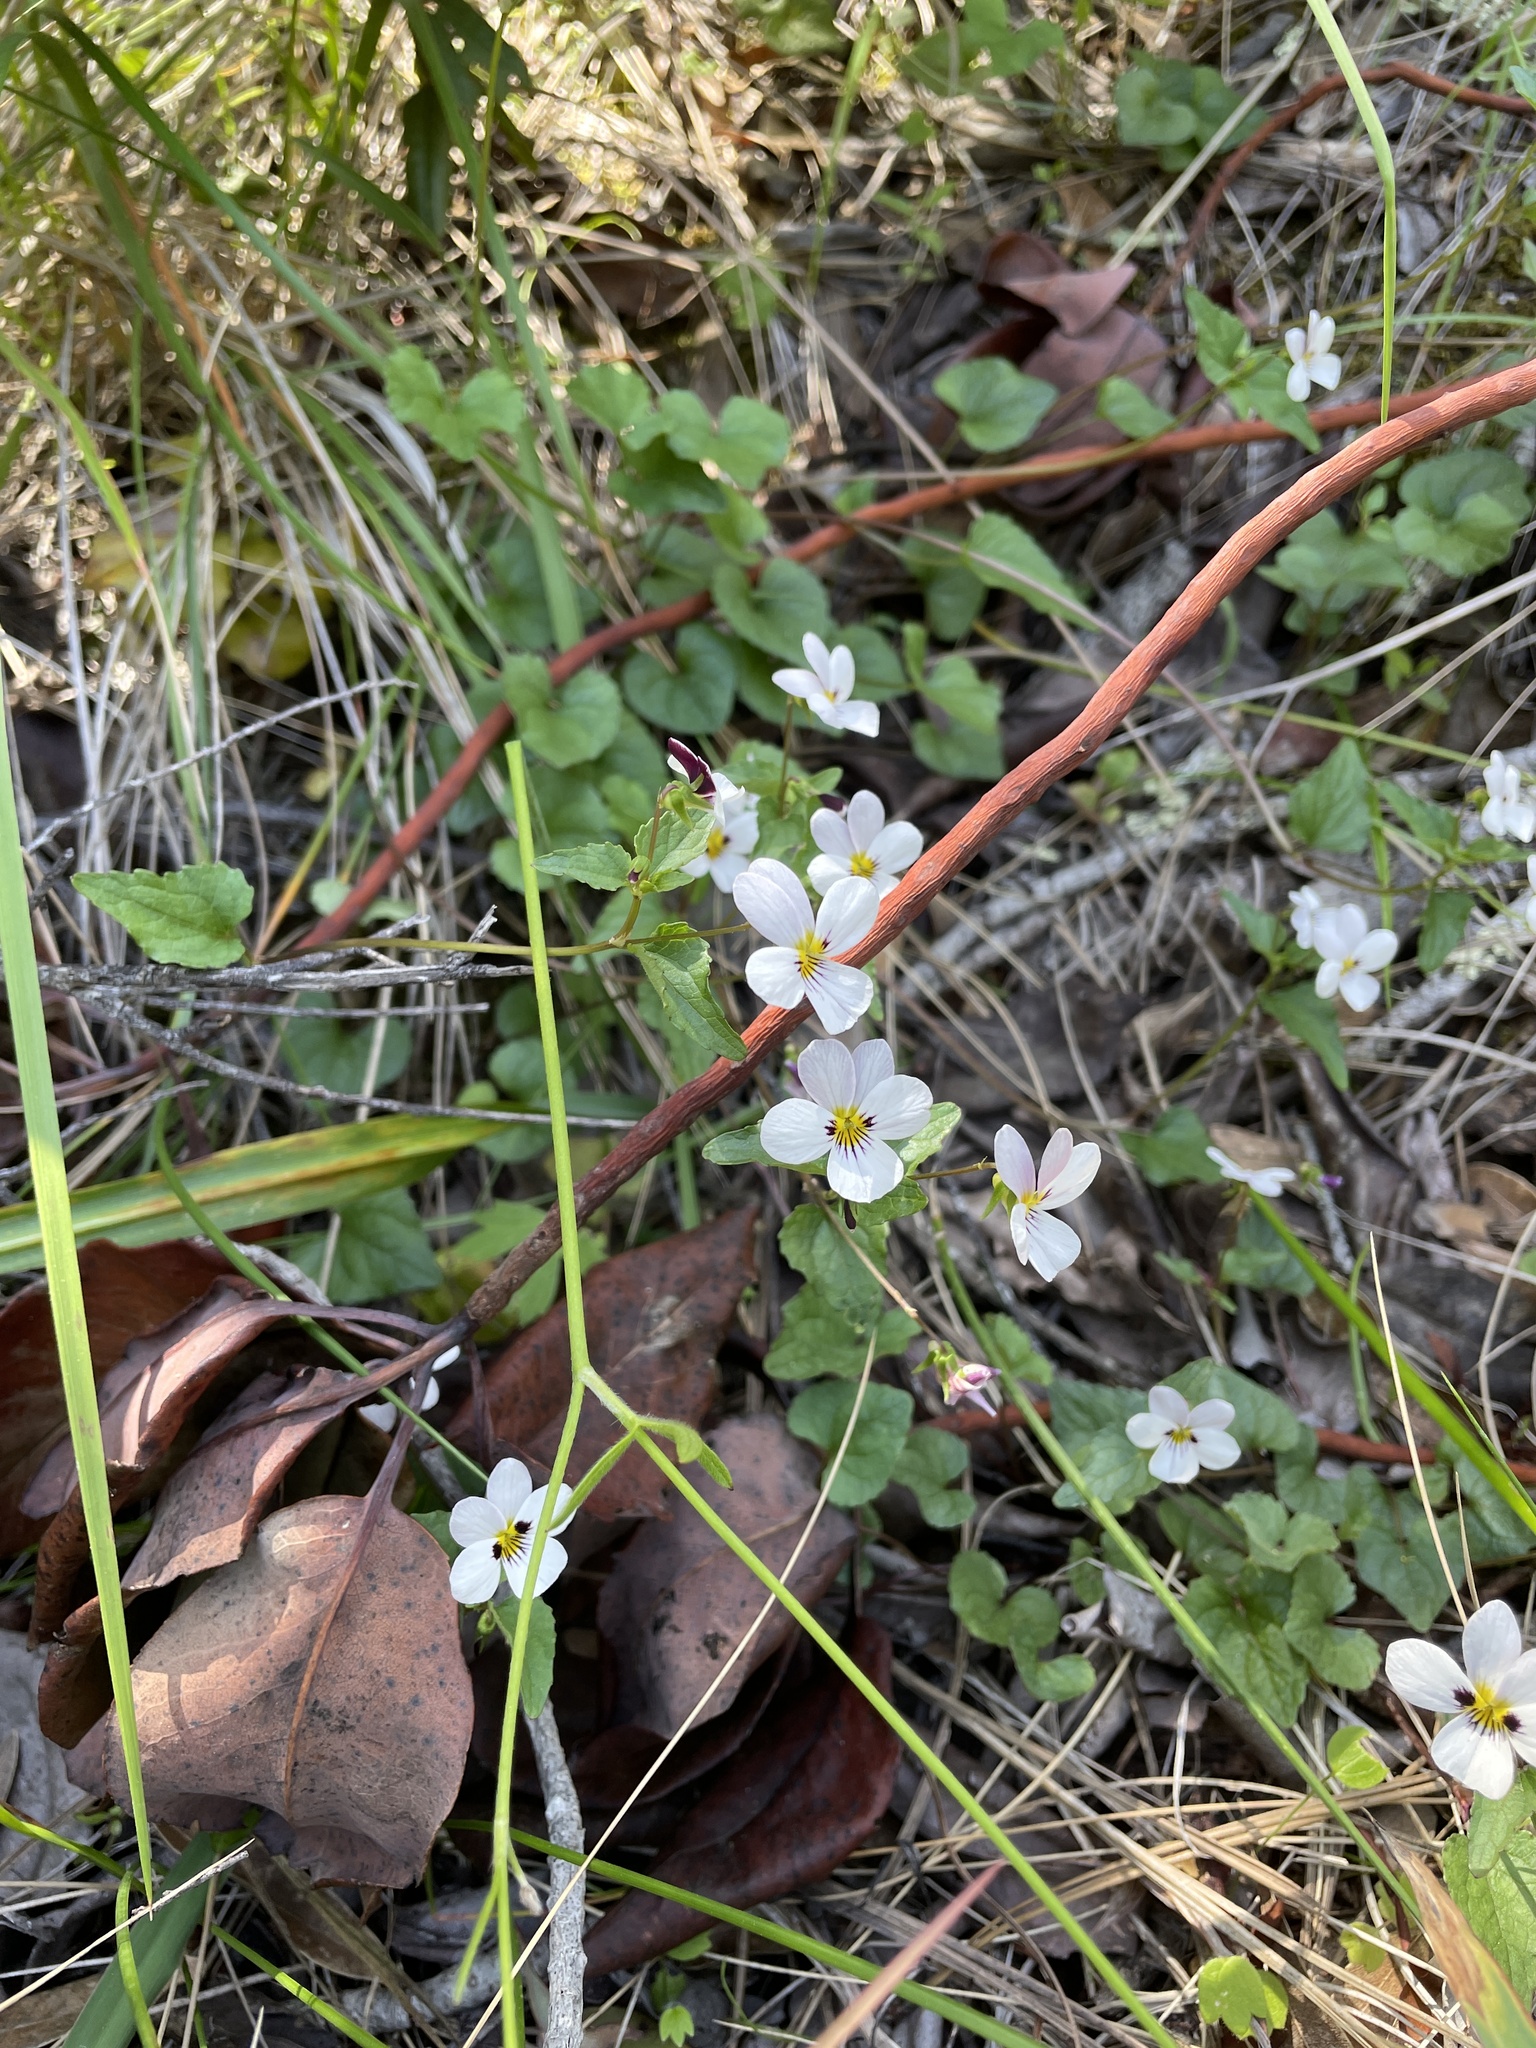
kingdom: Plantae
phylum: Tracheophyta
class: Magnoliopsida
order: Malpighiales
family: Violaceae
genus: Viola
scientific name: Viola ocellata
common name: Western heart's ease
